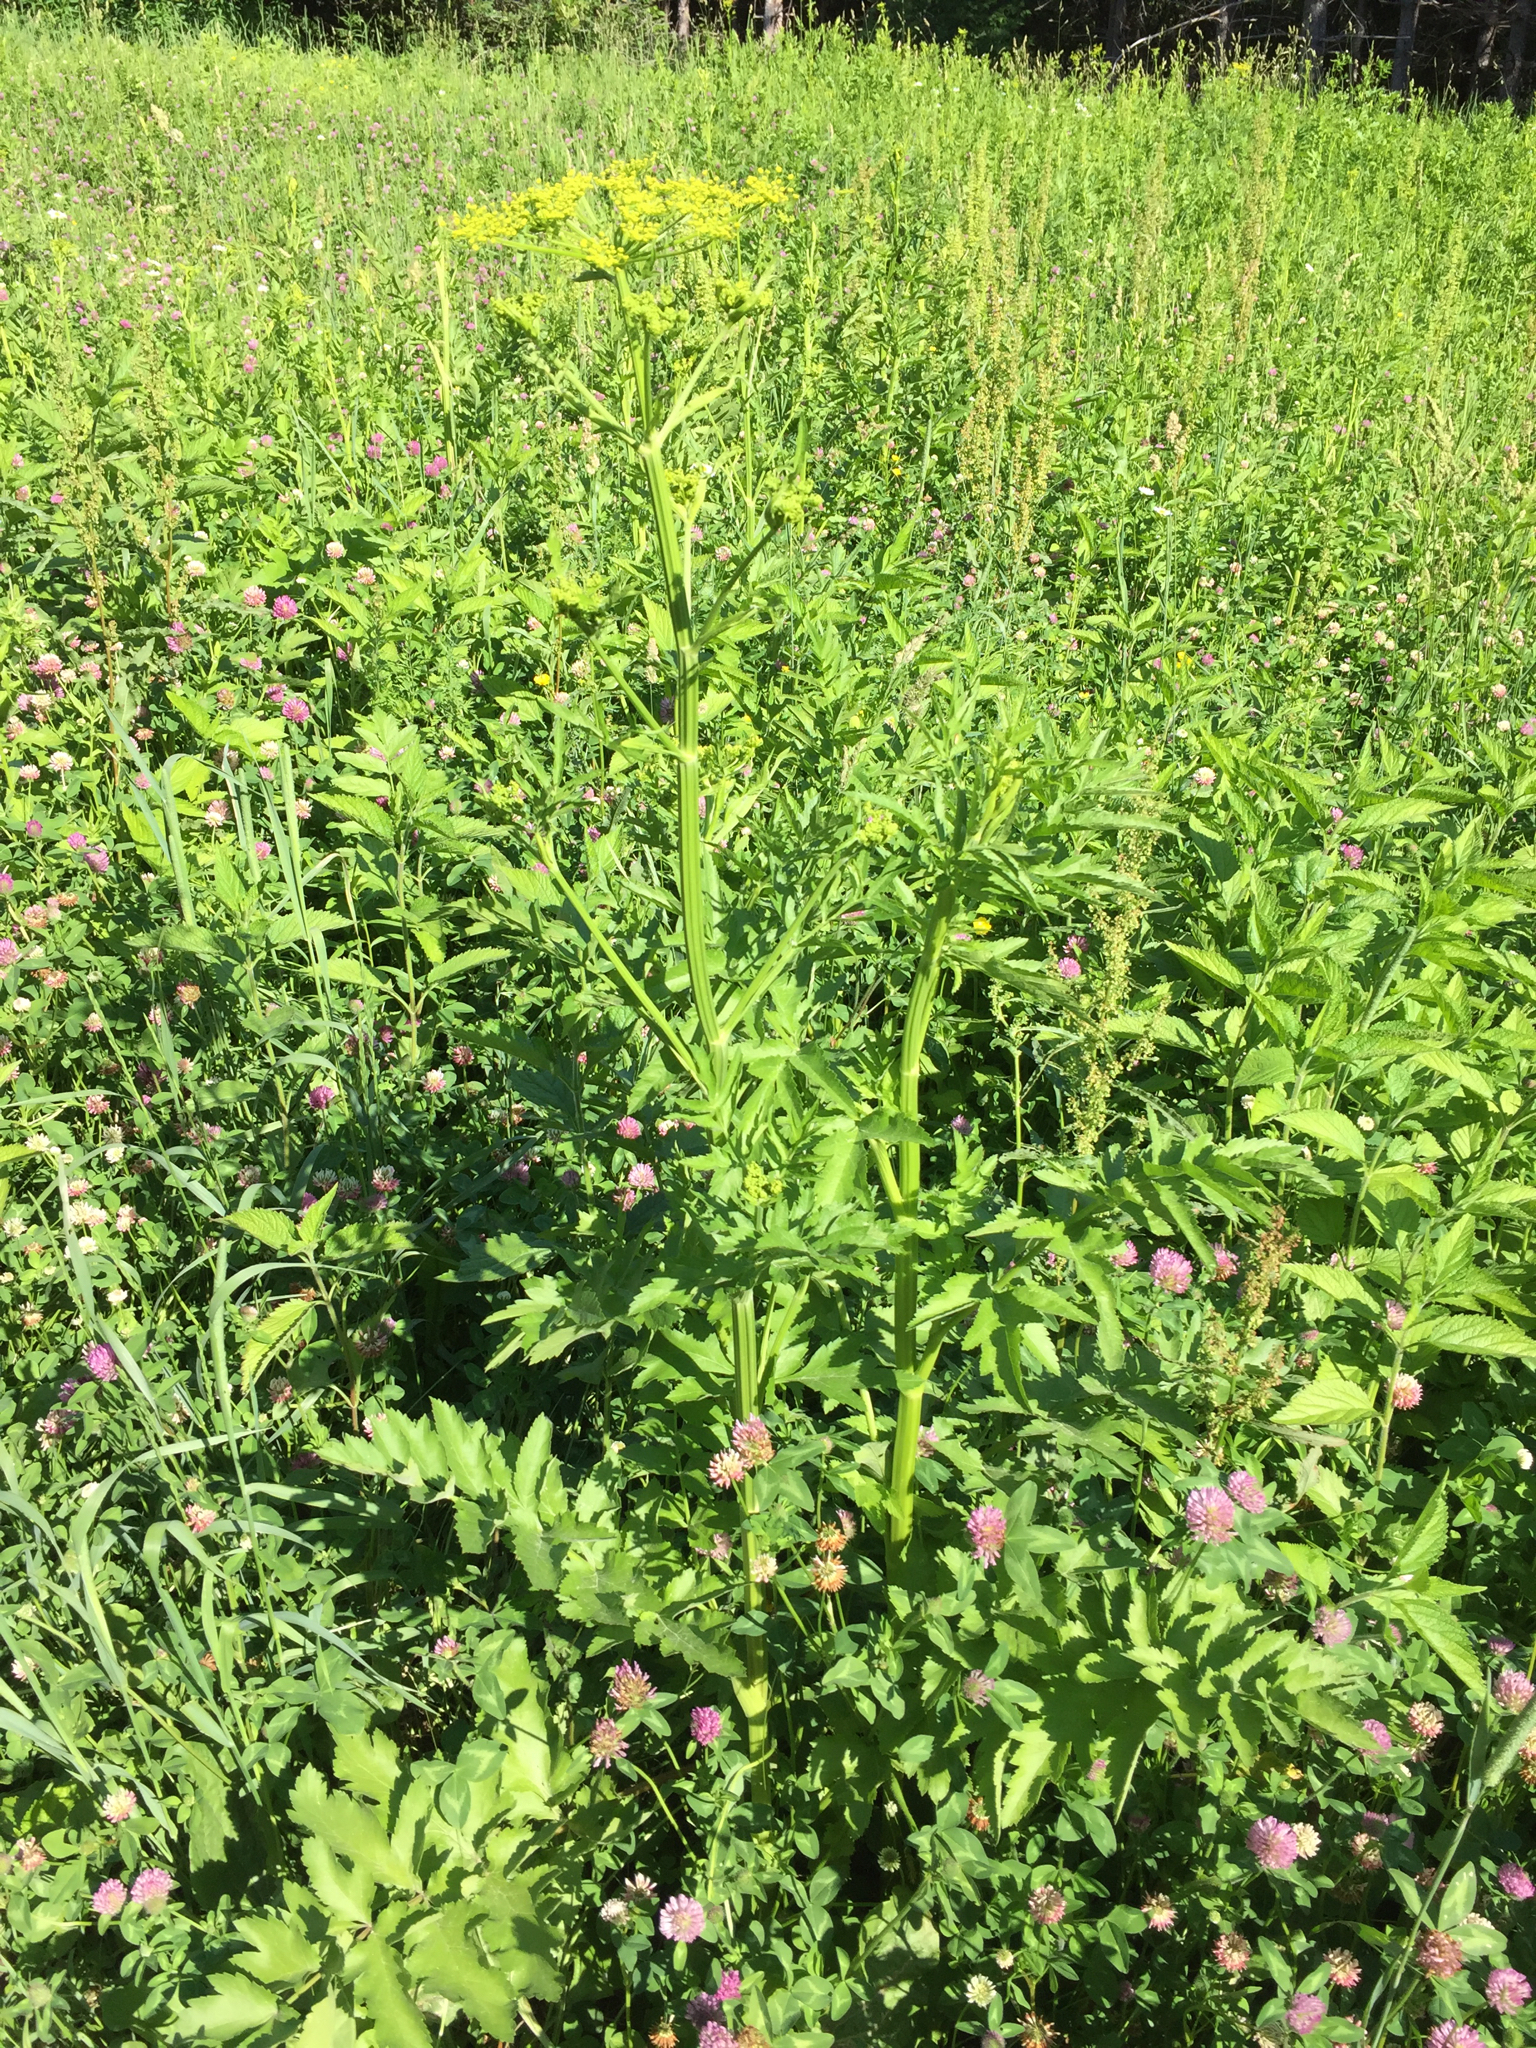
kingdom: Plantae
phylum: Tracheophyta
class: Magnoliopsida
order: Apiales
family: Apiaceae
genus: Pastinaca
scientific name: Pastinaca sativa
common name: Wild parsnip
